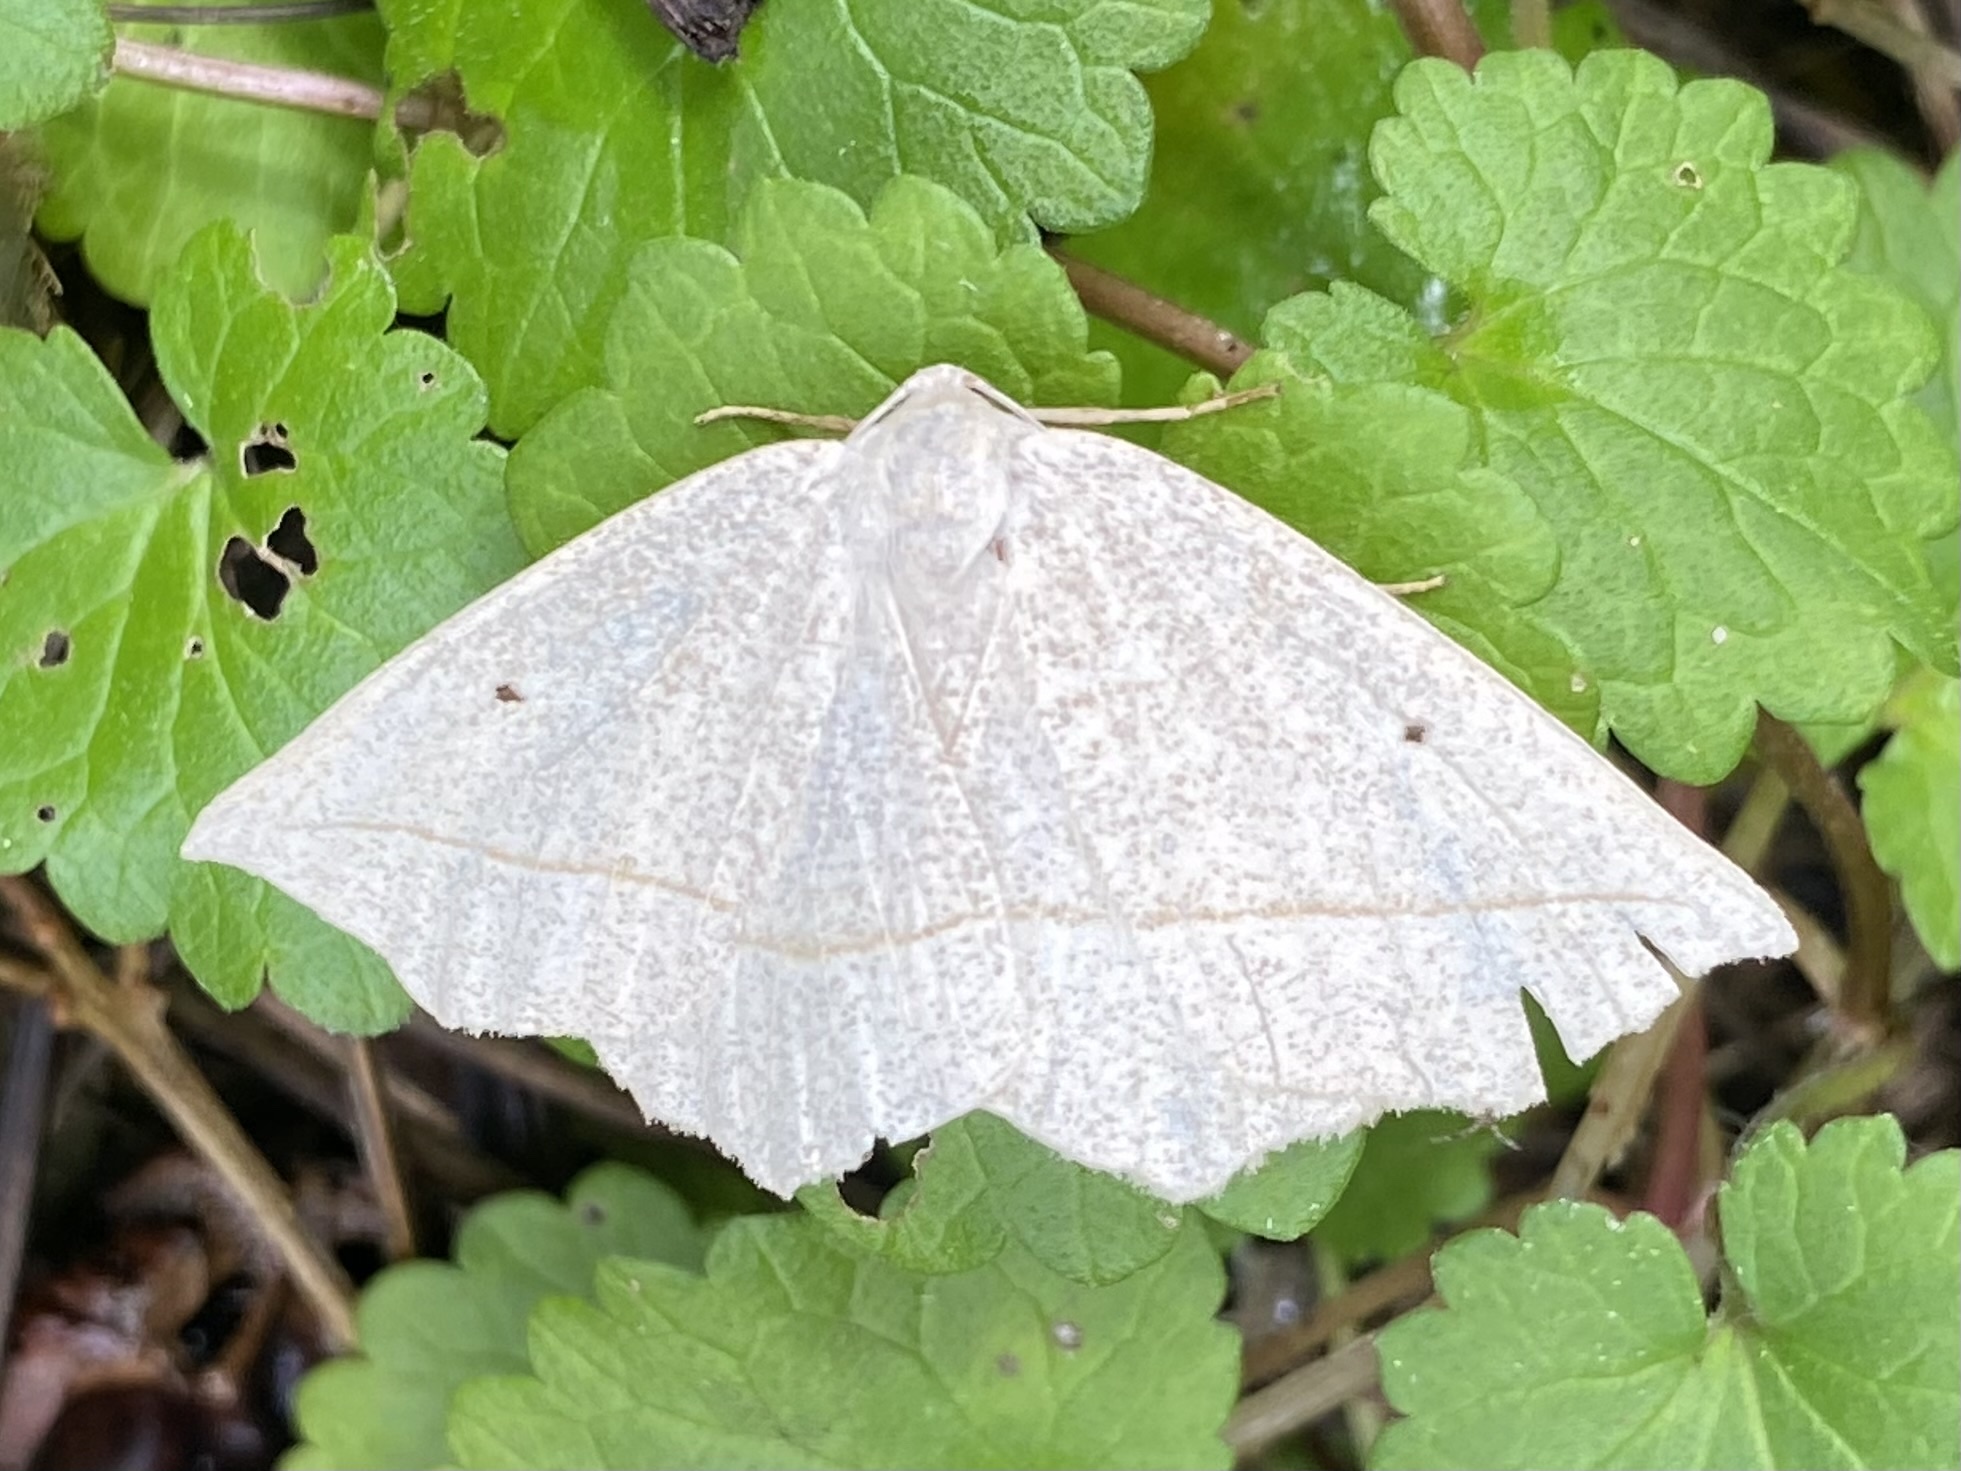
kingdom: Animalia
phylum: Arthropoda
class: Insecta
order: Lepidoptera
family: Geometridae
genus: Eusarca
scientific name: Eusarca confusaria
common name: Confused eusarca
